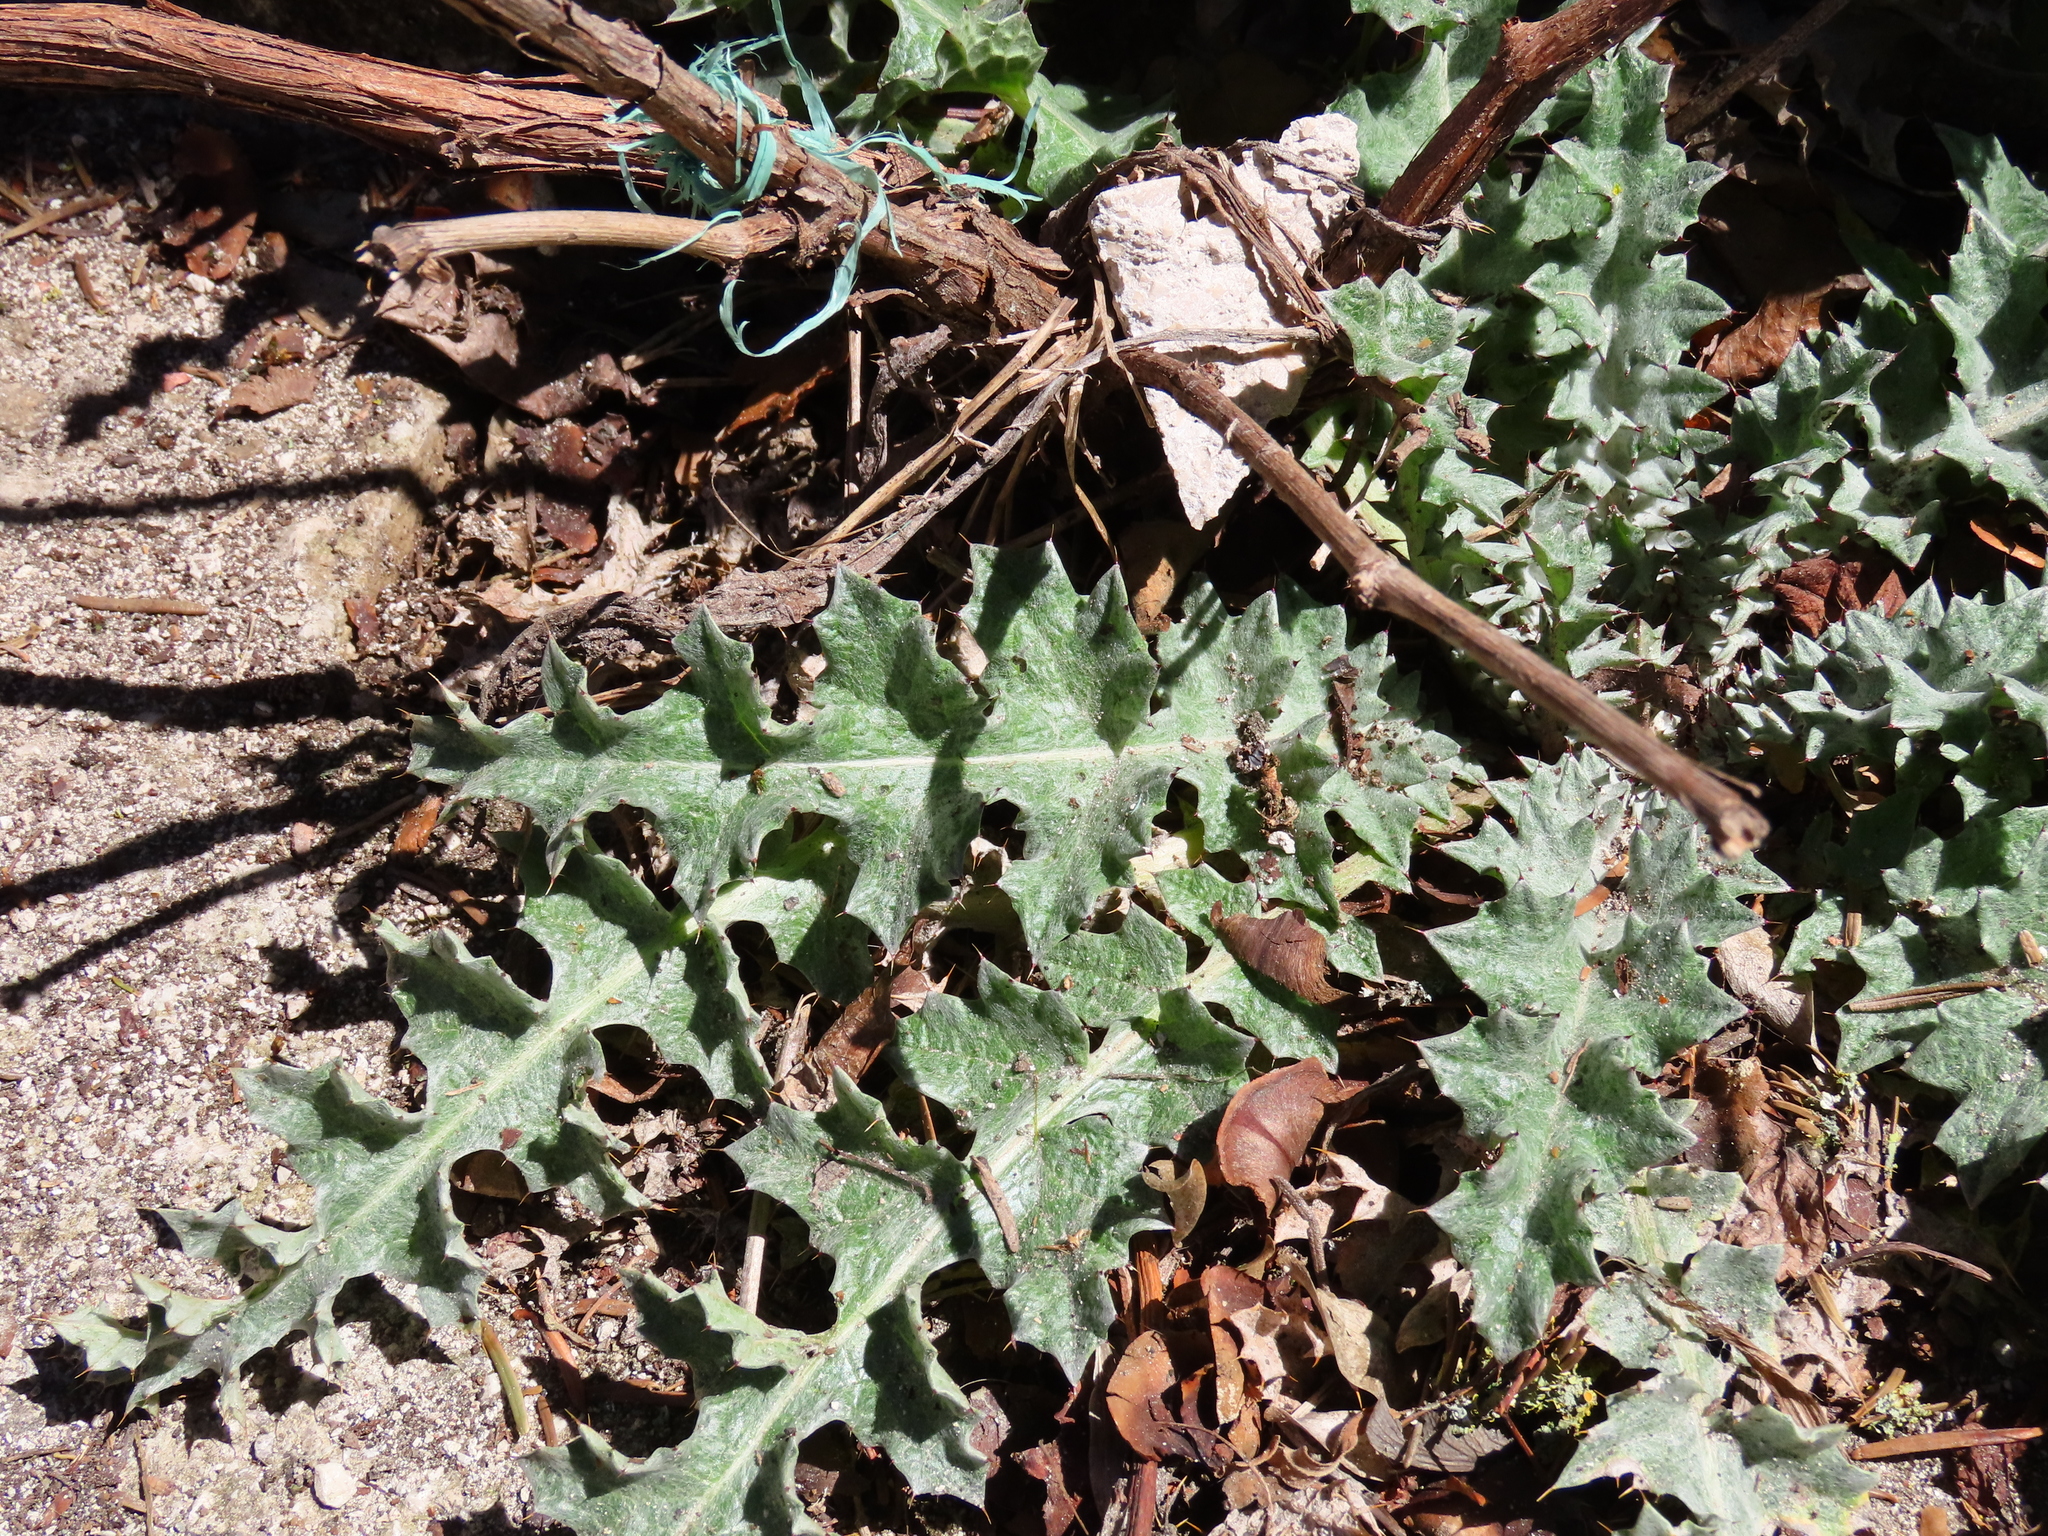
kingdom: Plantae
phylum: Tracheophyta
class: Magnoliopsida
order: Asterales
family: Asteraceae
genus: Onopordum
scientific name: Onopordum illyricum
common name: Illyrian thistle
